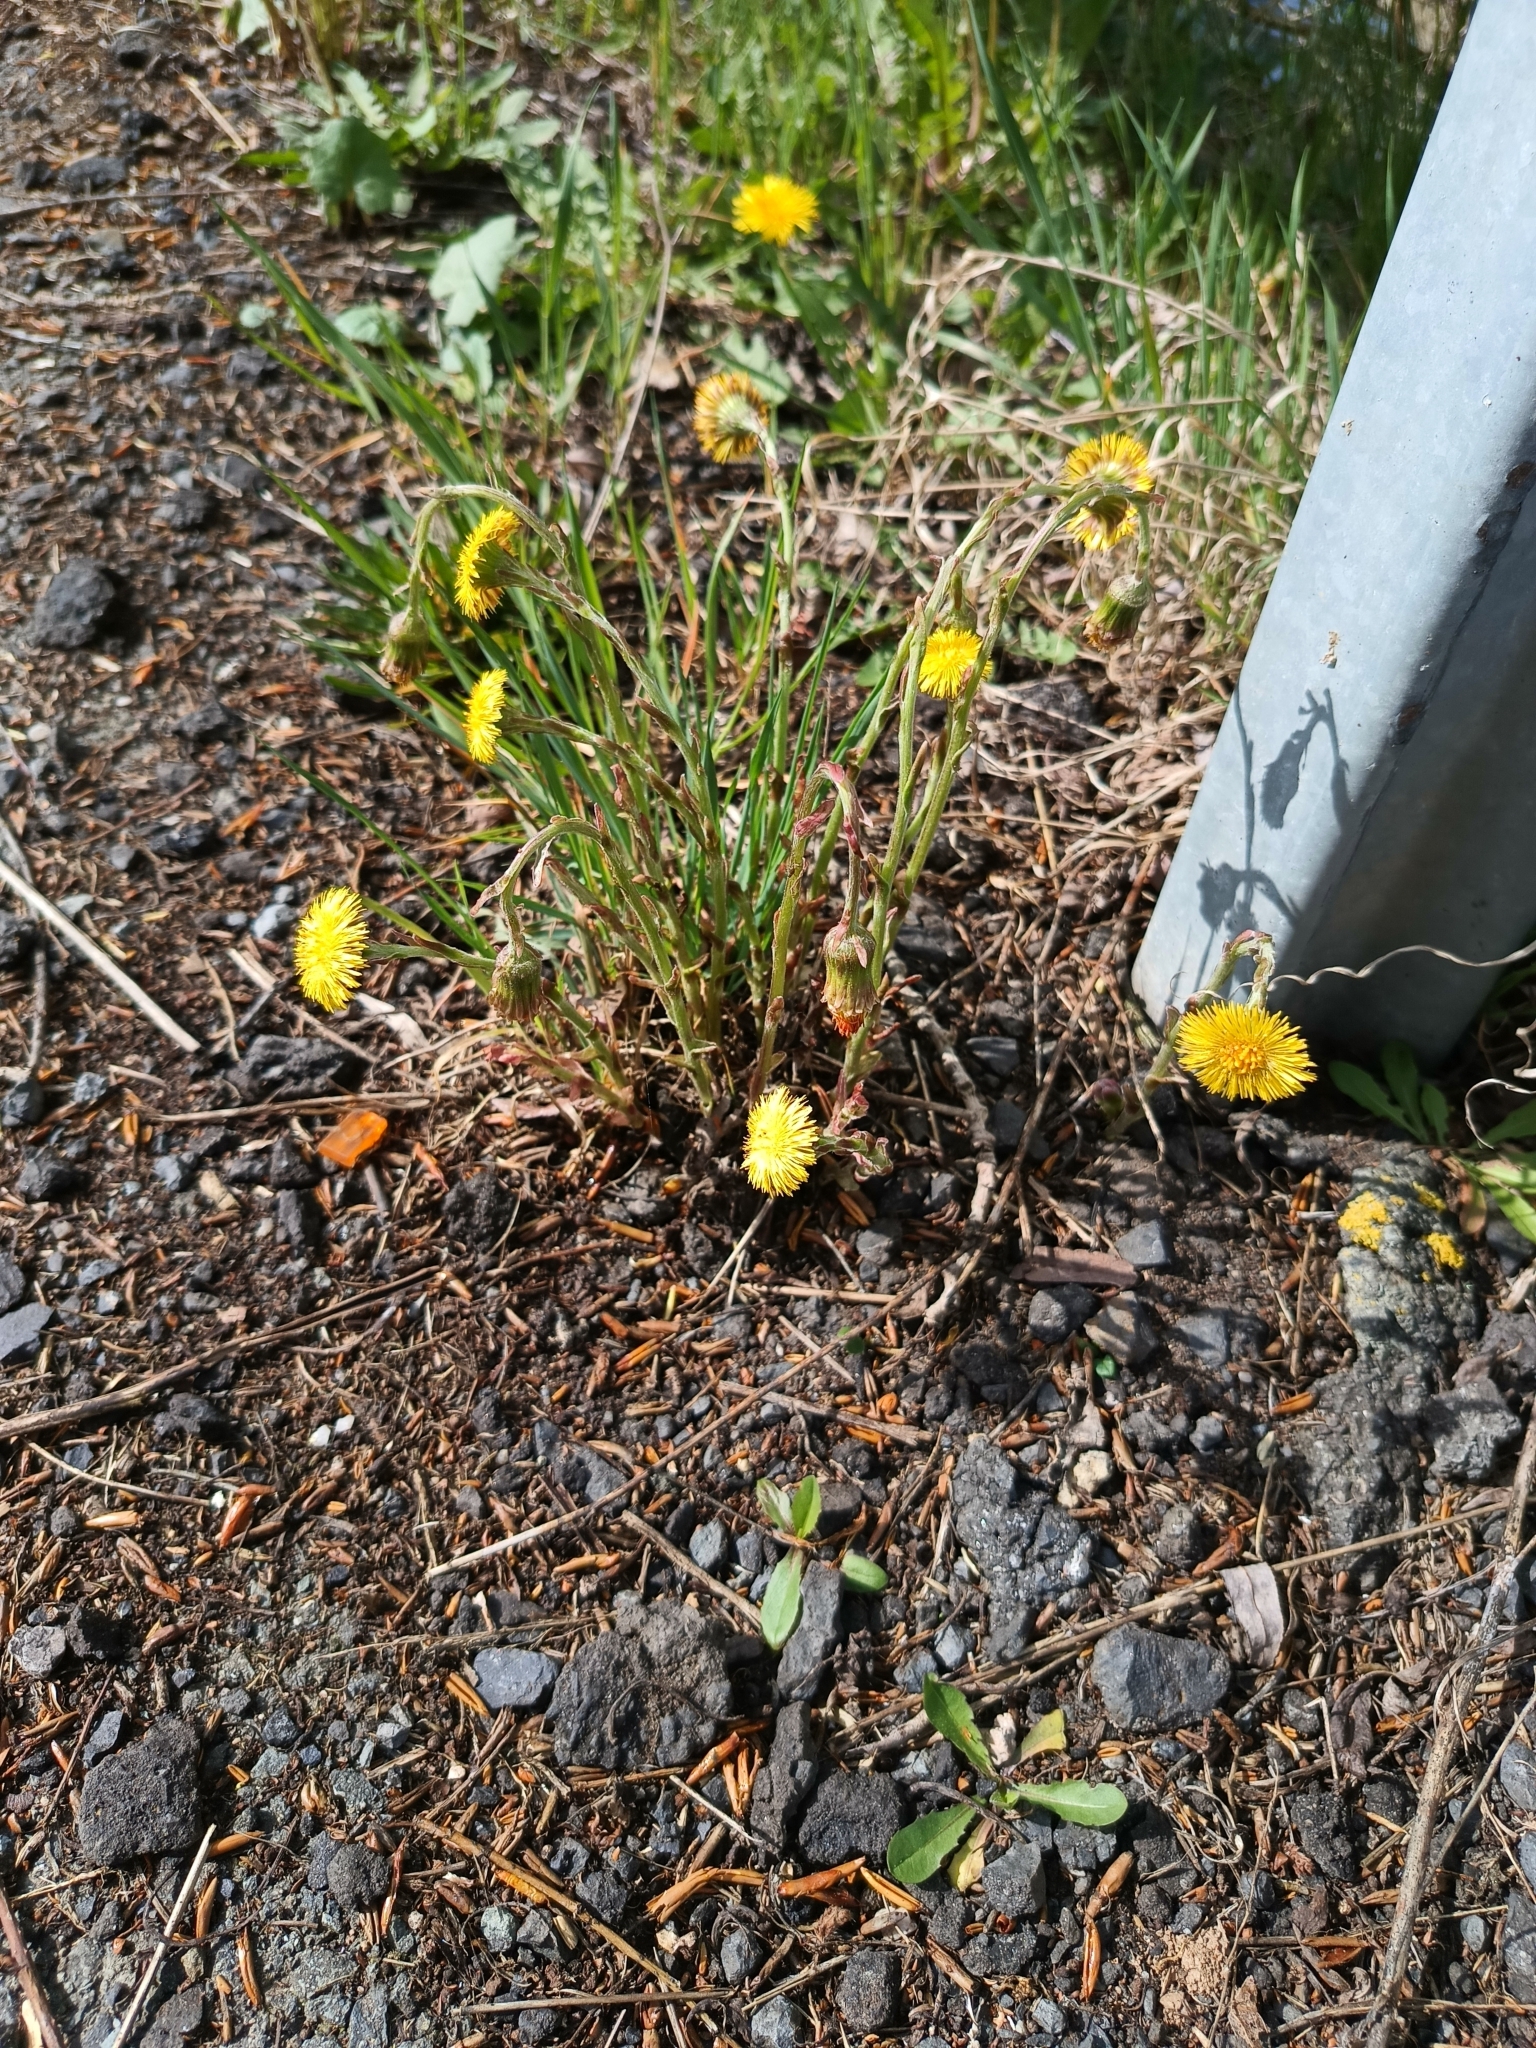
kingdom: Plantae
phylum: Tracheophyta
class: Magnoliopsida
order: Asterales
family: Asteraceae
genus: Tussilago
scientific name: Tussilago farfara
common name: Coltsfoot
